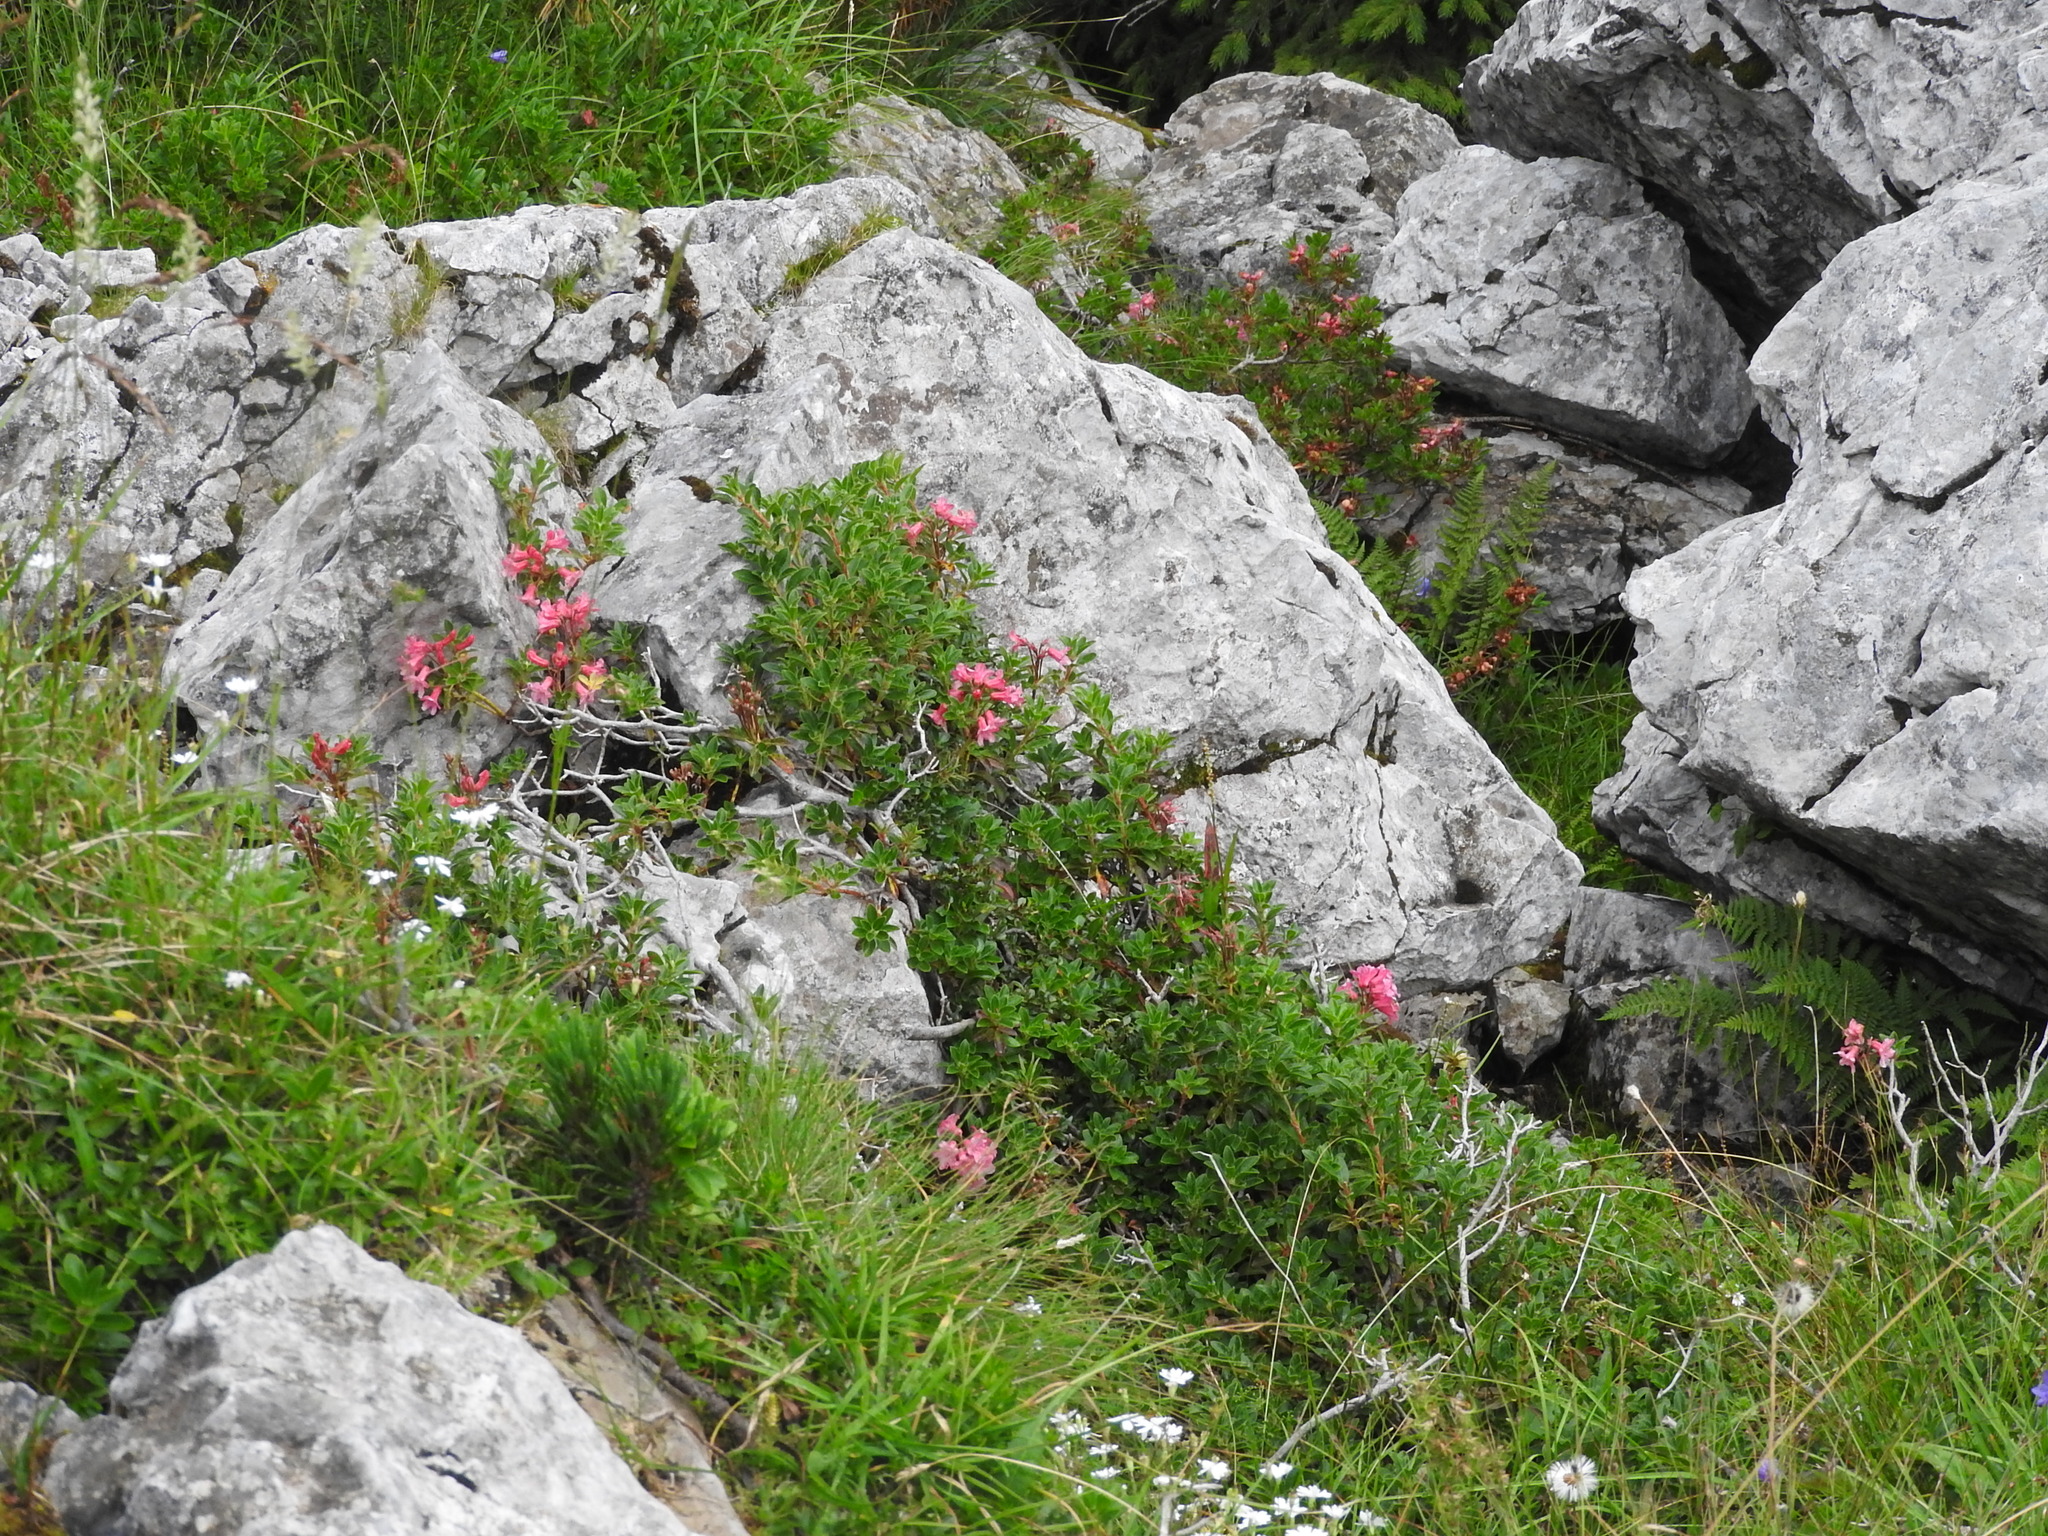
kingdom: Plantae
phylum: Tracheophyta
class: Magnoliopsida
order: Ericales
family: Ericaceae
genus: Rhododendron
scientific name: Rhododendron hirsutum
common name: Hairy alpenrose
